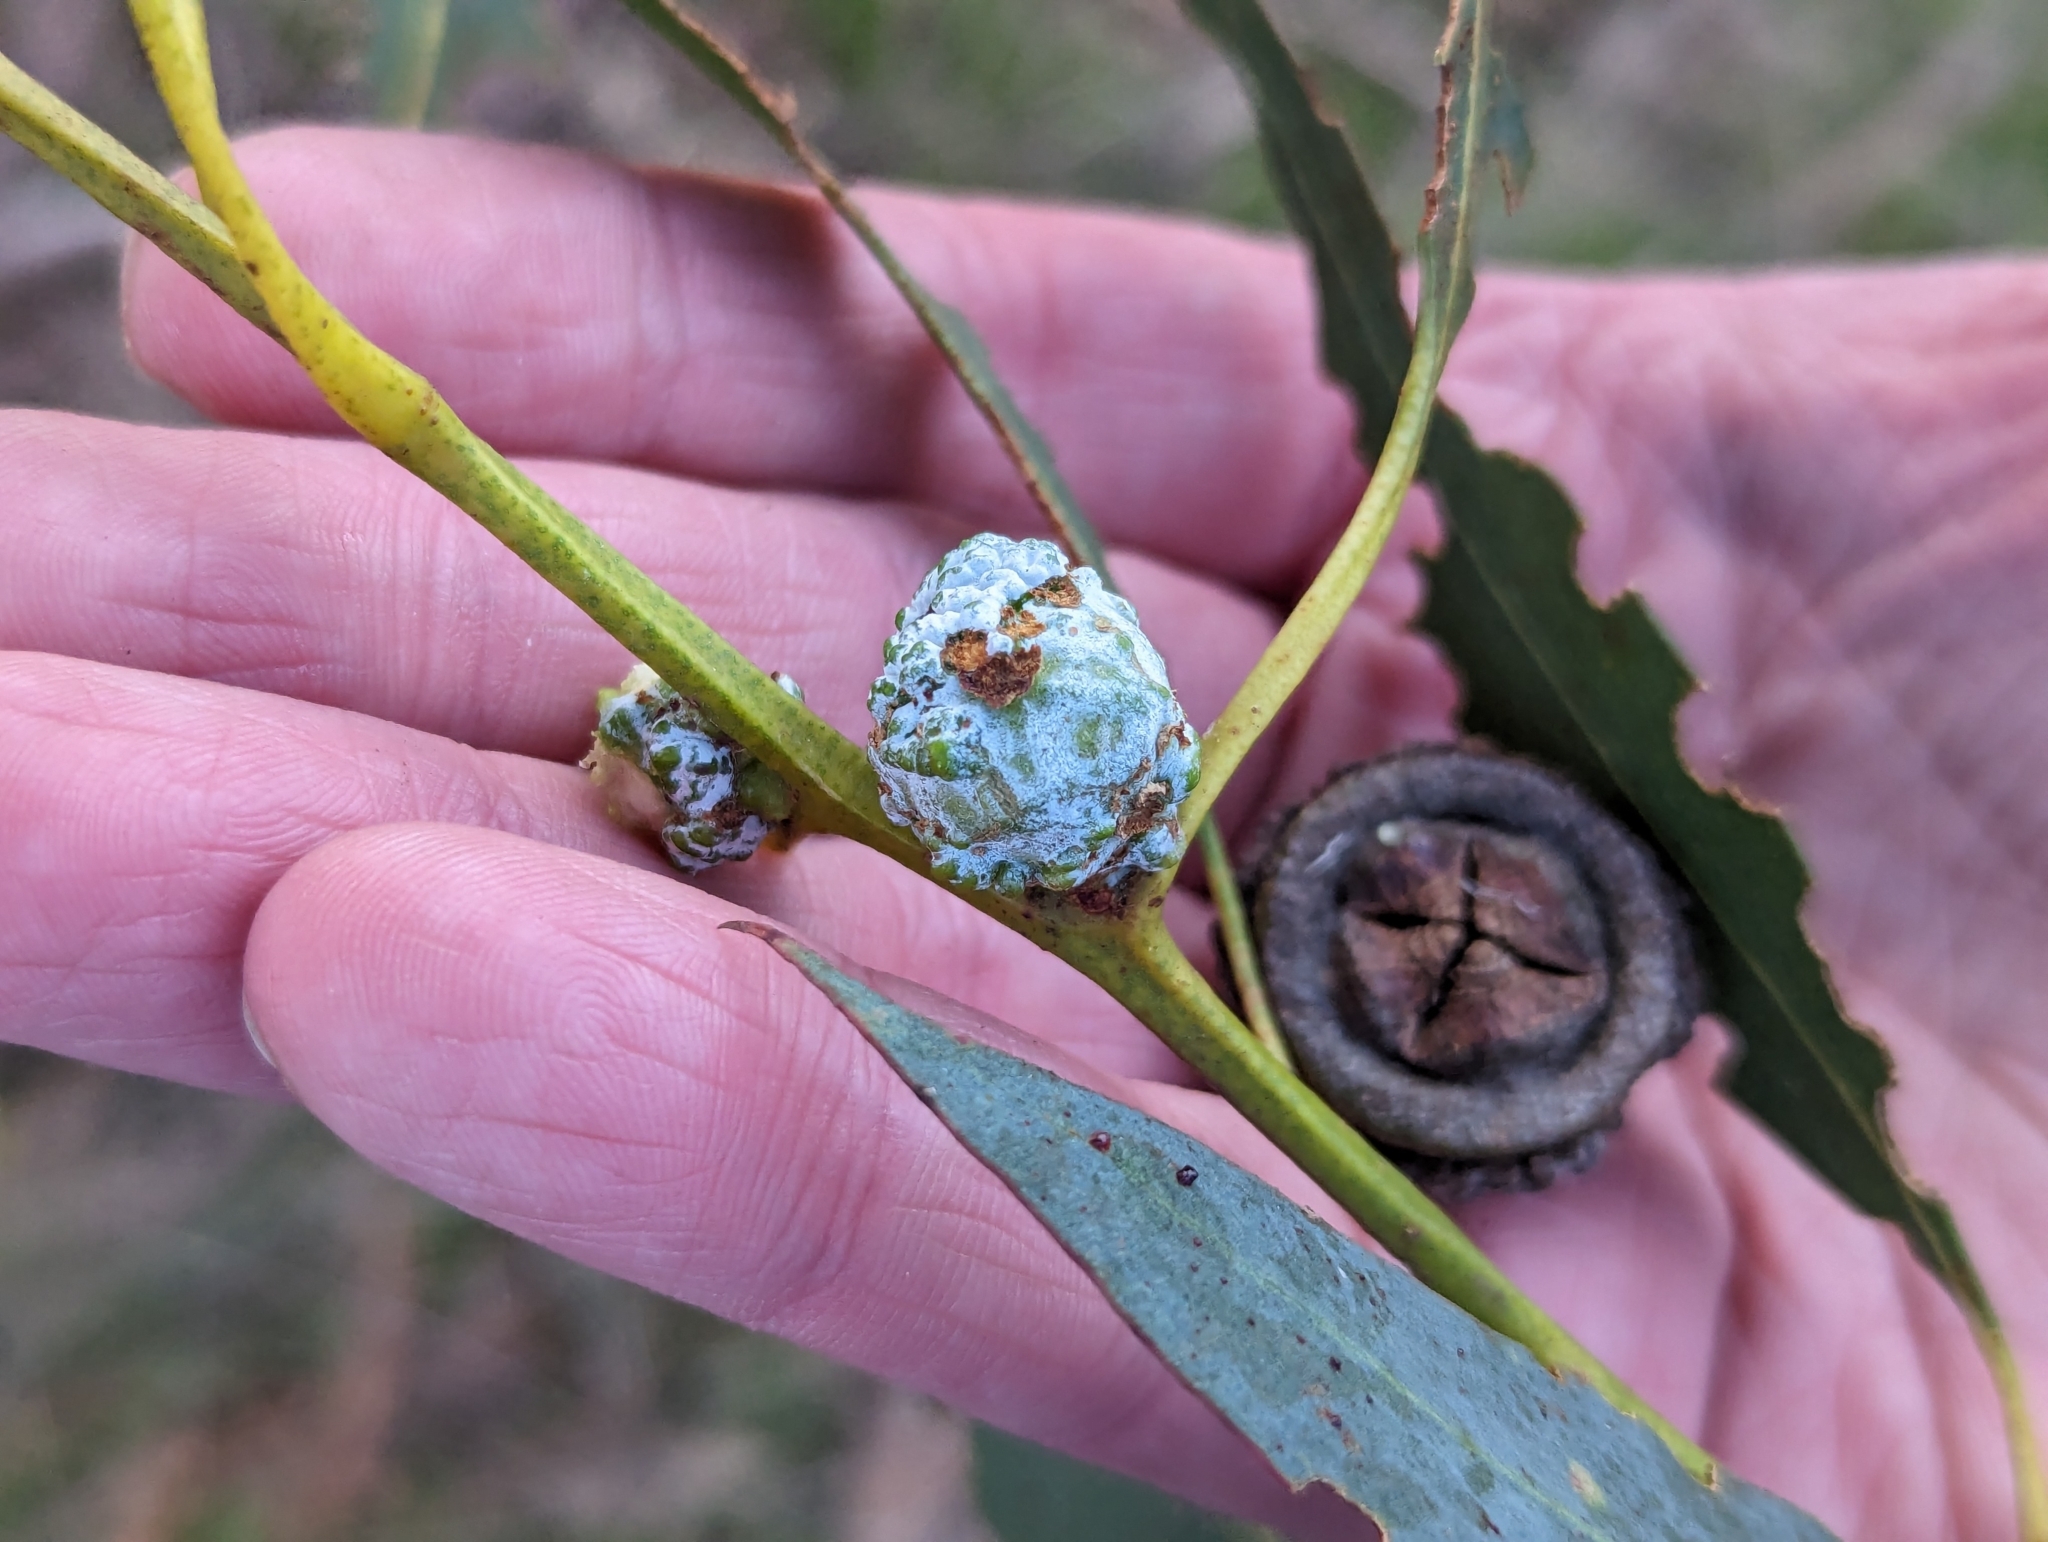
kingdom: Plantae
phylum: Tracheophyta
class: Magnoliopsida
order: Myrtales
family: Myrtaceae
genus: Eucalyptus
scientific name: Eucalyptus globulus
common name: Southern blue-gum
